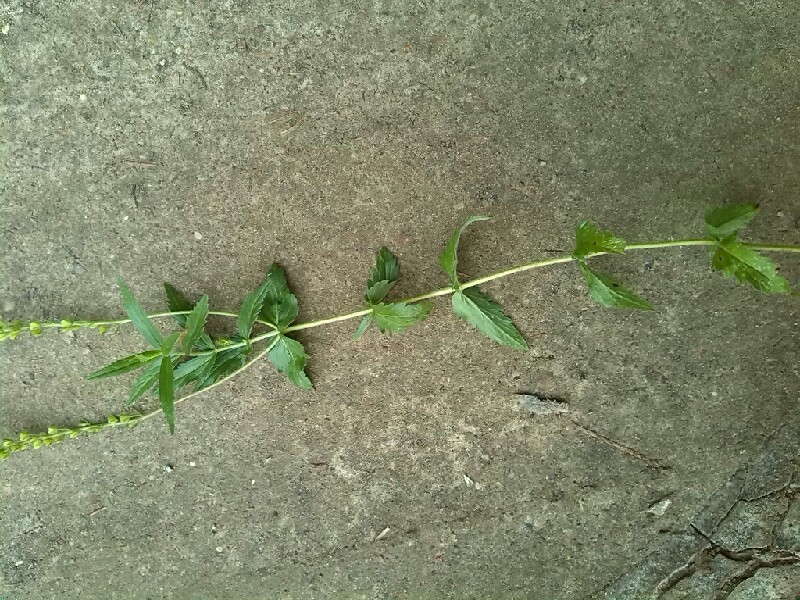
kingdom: Plantae
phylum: Tracheophyta
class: Magnoliopsida
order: Lamiales
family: Plantaginaceae
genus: Veronica
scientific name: Veronica teucrium
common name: Large speedwell
